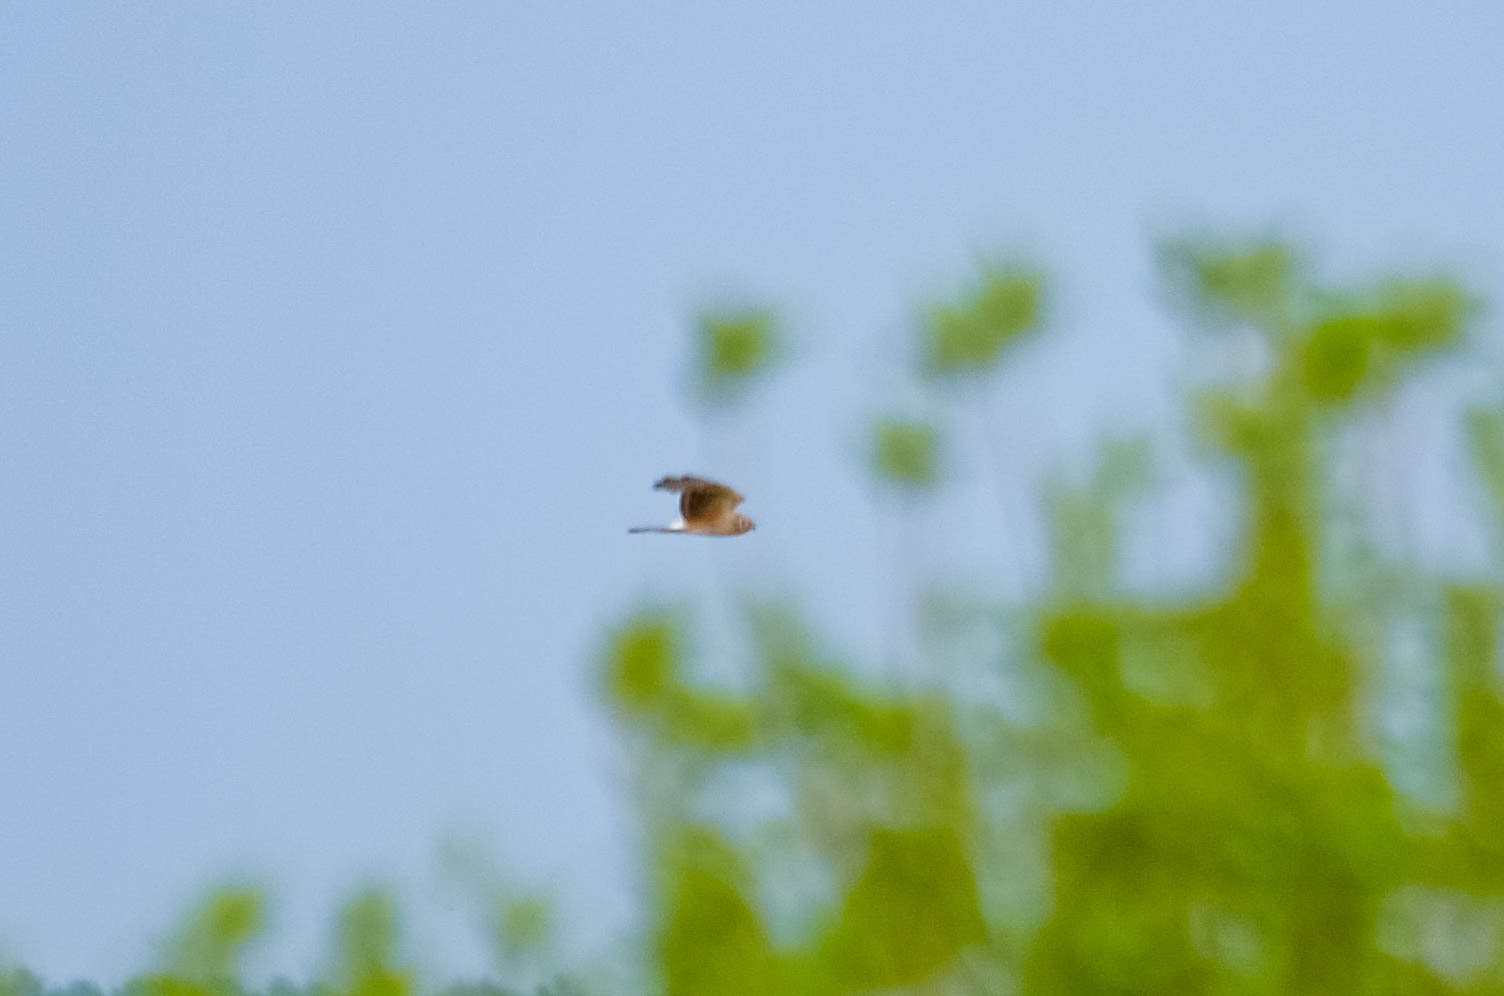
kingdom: Animalia
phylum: Chordata
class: Aves
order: Accipitriformes
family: Accipitridae
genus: Circus
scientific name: Circus cyaneus
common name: Hen harrier
